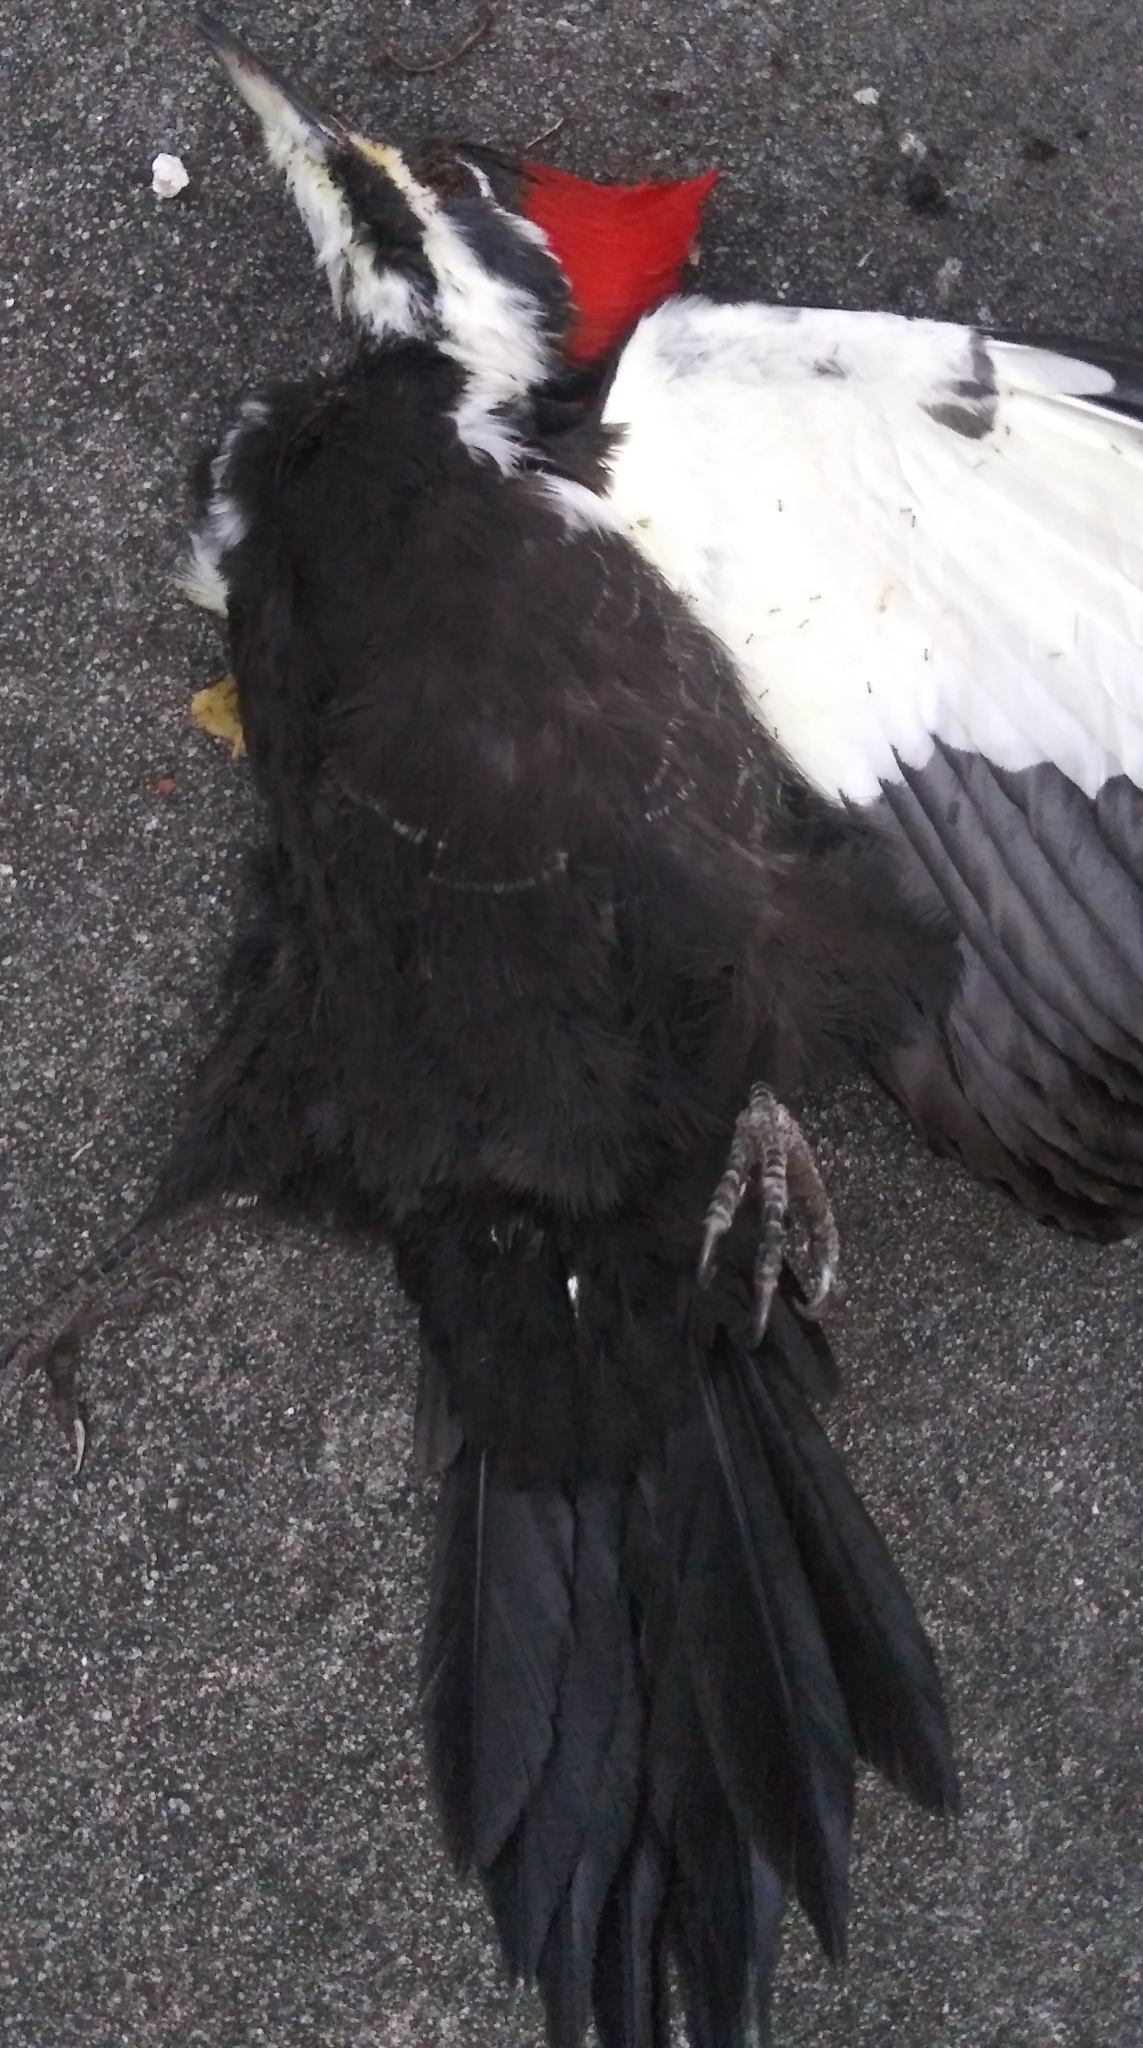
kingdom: Animalia
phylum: Chordata
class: Aves
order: Piciformes
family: Picidae
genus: Dryocopus
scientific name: Dryocopus pileatus
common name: Pileated woodpecker
